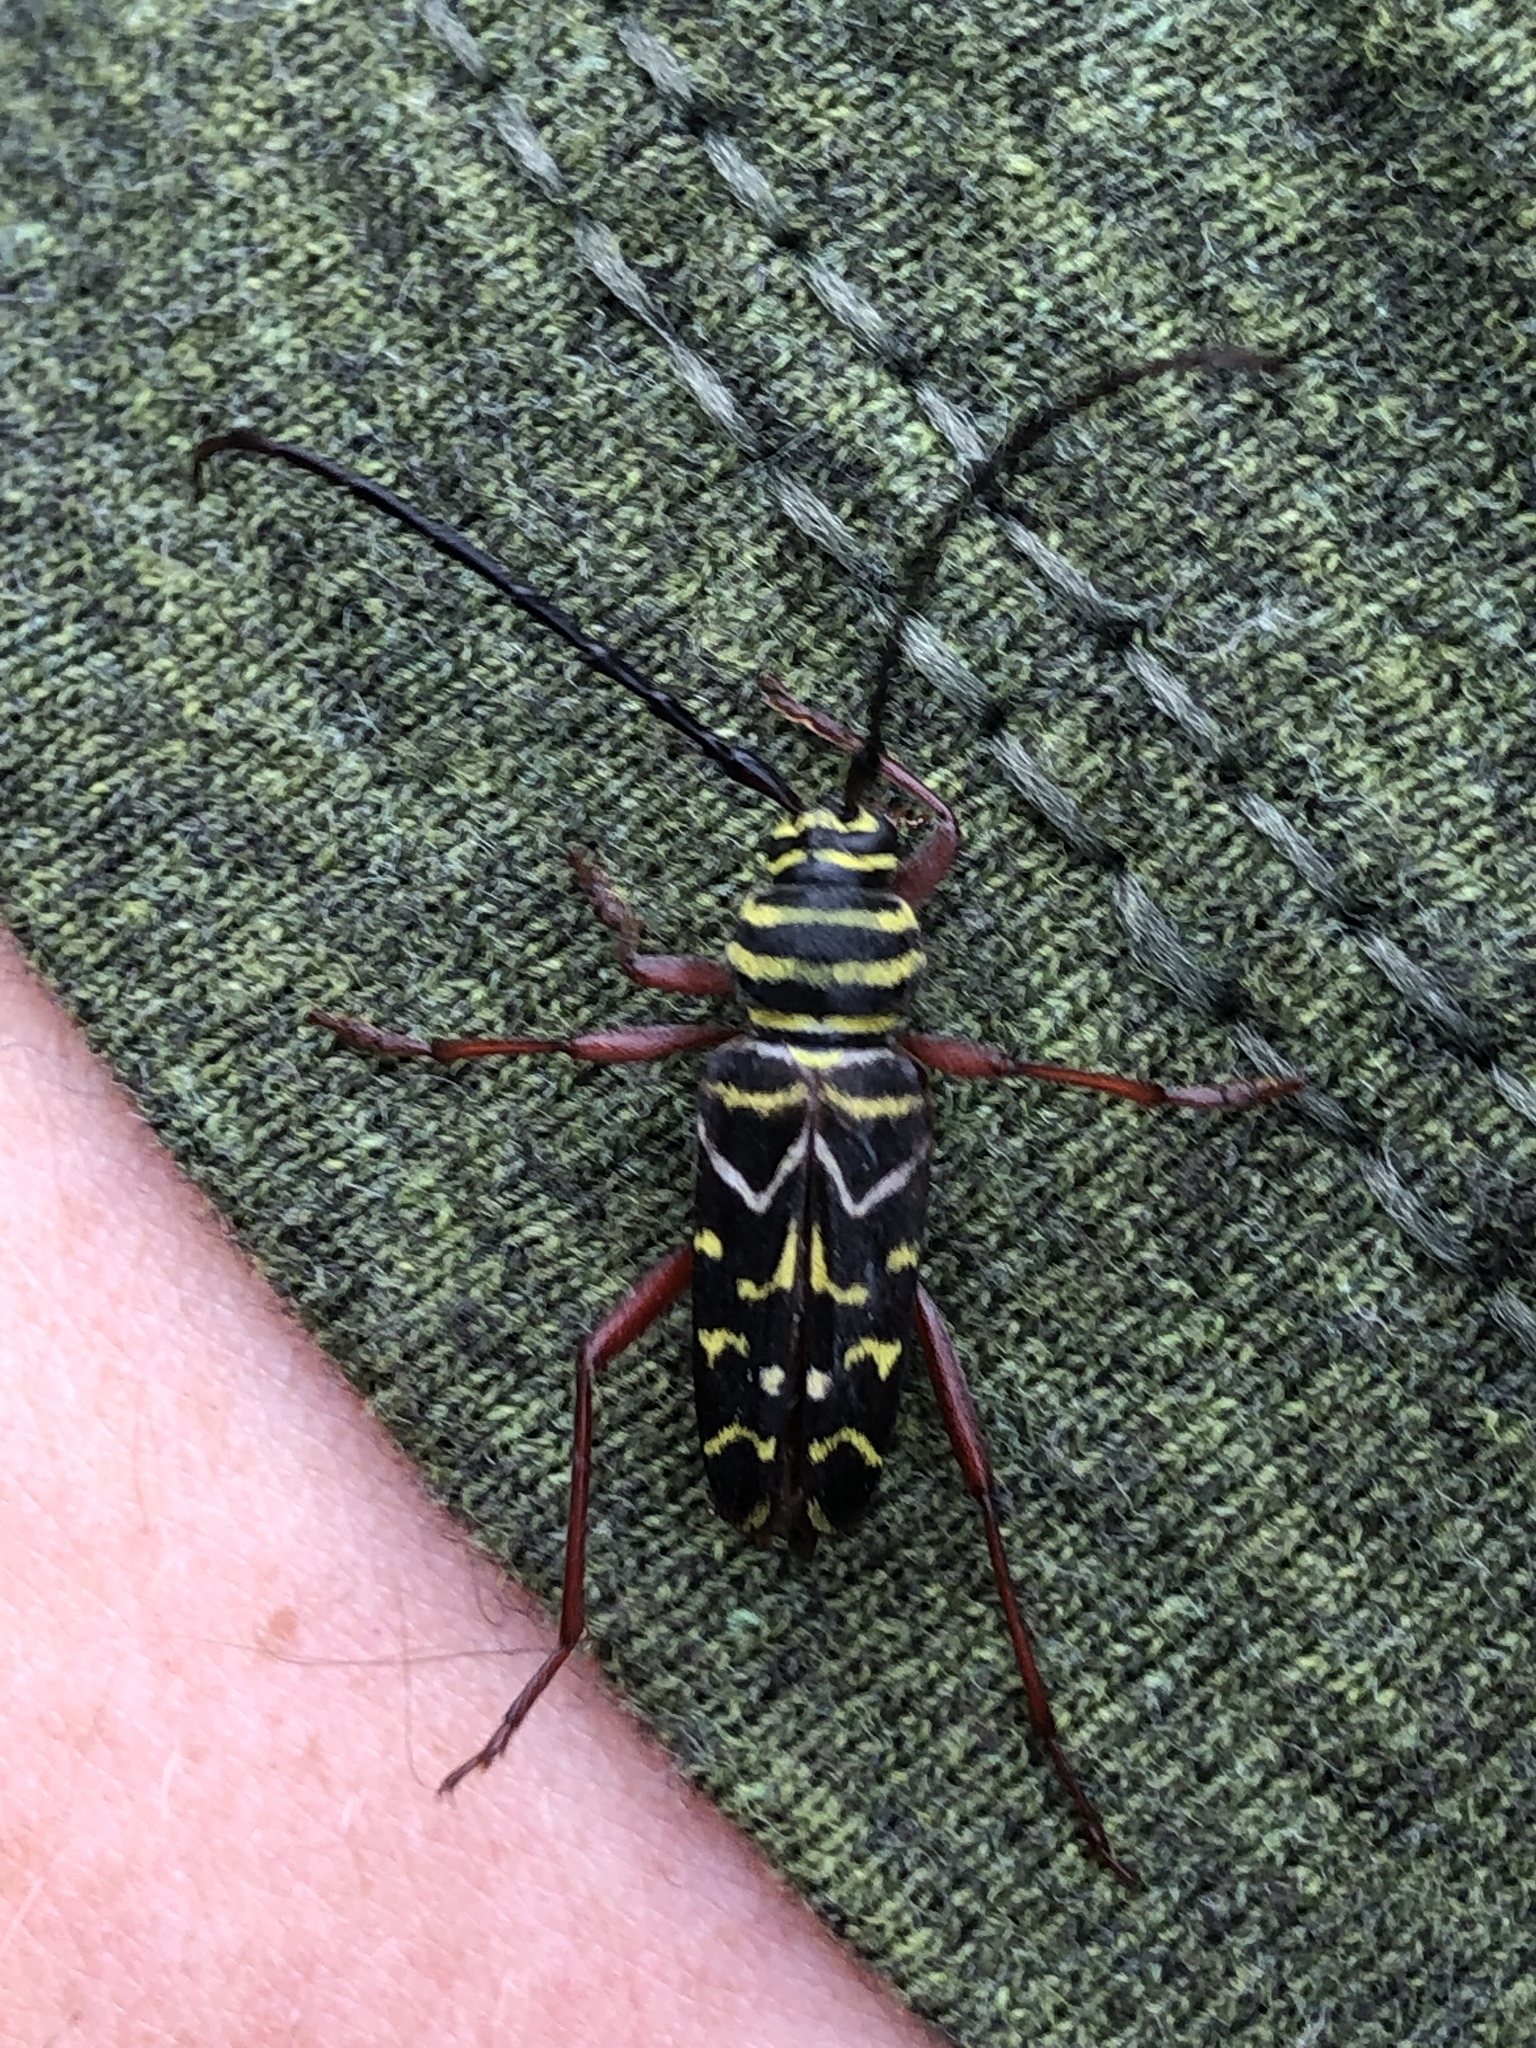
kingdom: Animalia
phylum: Arthropoda
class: Insecta
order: Coleoptera
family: Cerambycidae
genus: Megacyllene
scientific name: Megacyllene caryae
